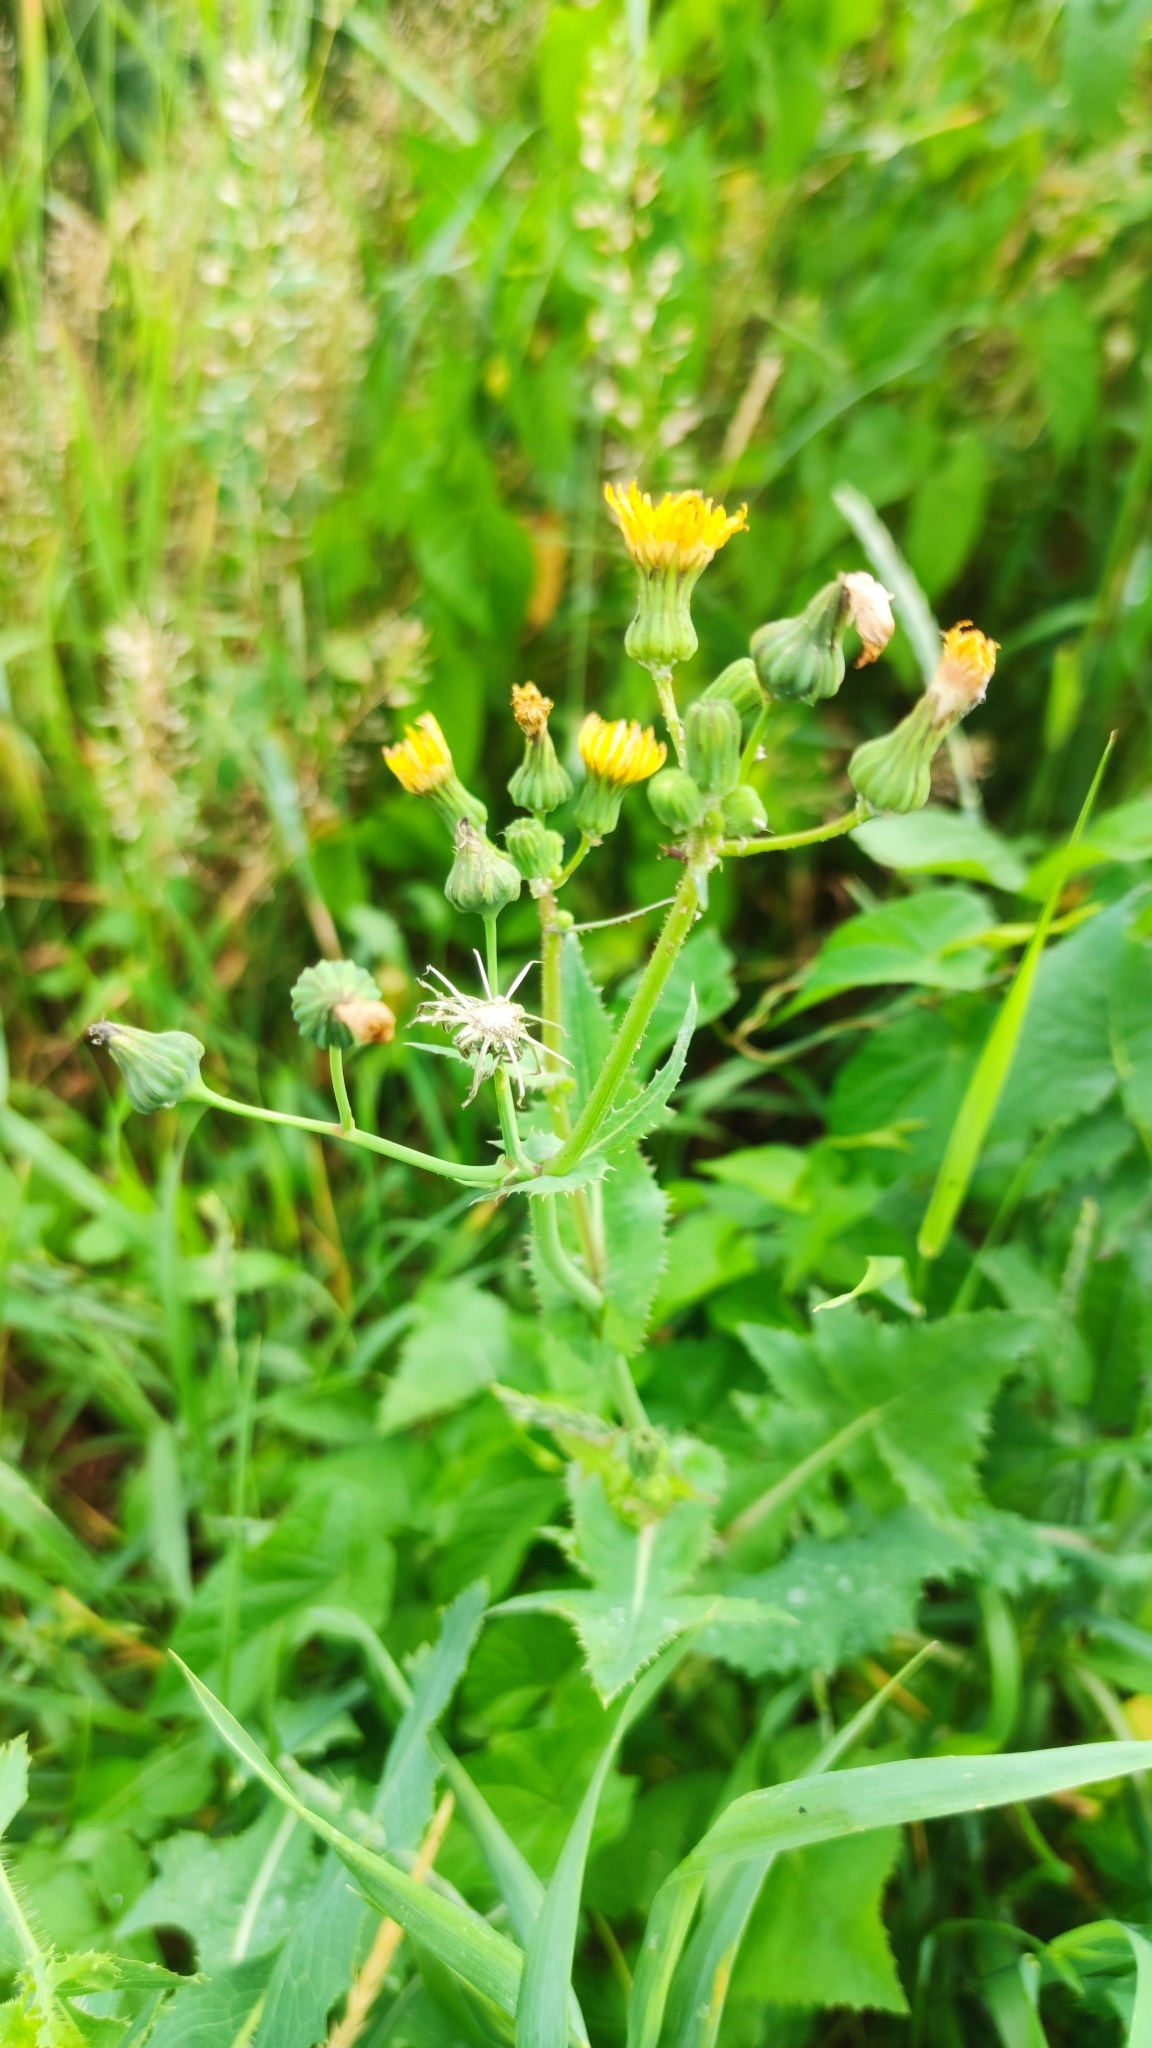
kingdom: Plantae
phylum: Tracheophyta
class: Magnoliopsida
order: Asterales
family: Asteraceae
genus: Sonchus
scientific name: Sonchus oleraceus
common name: Common sowthistle
